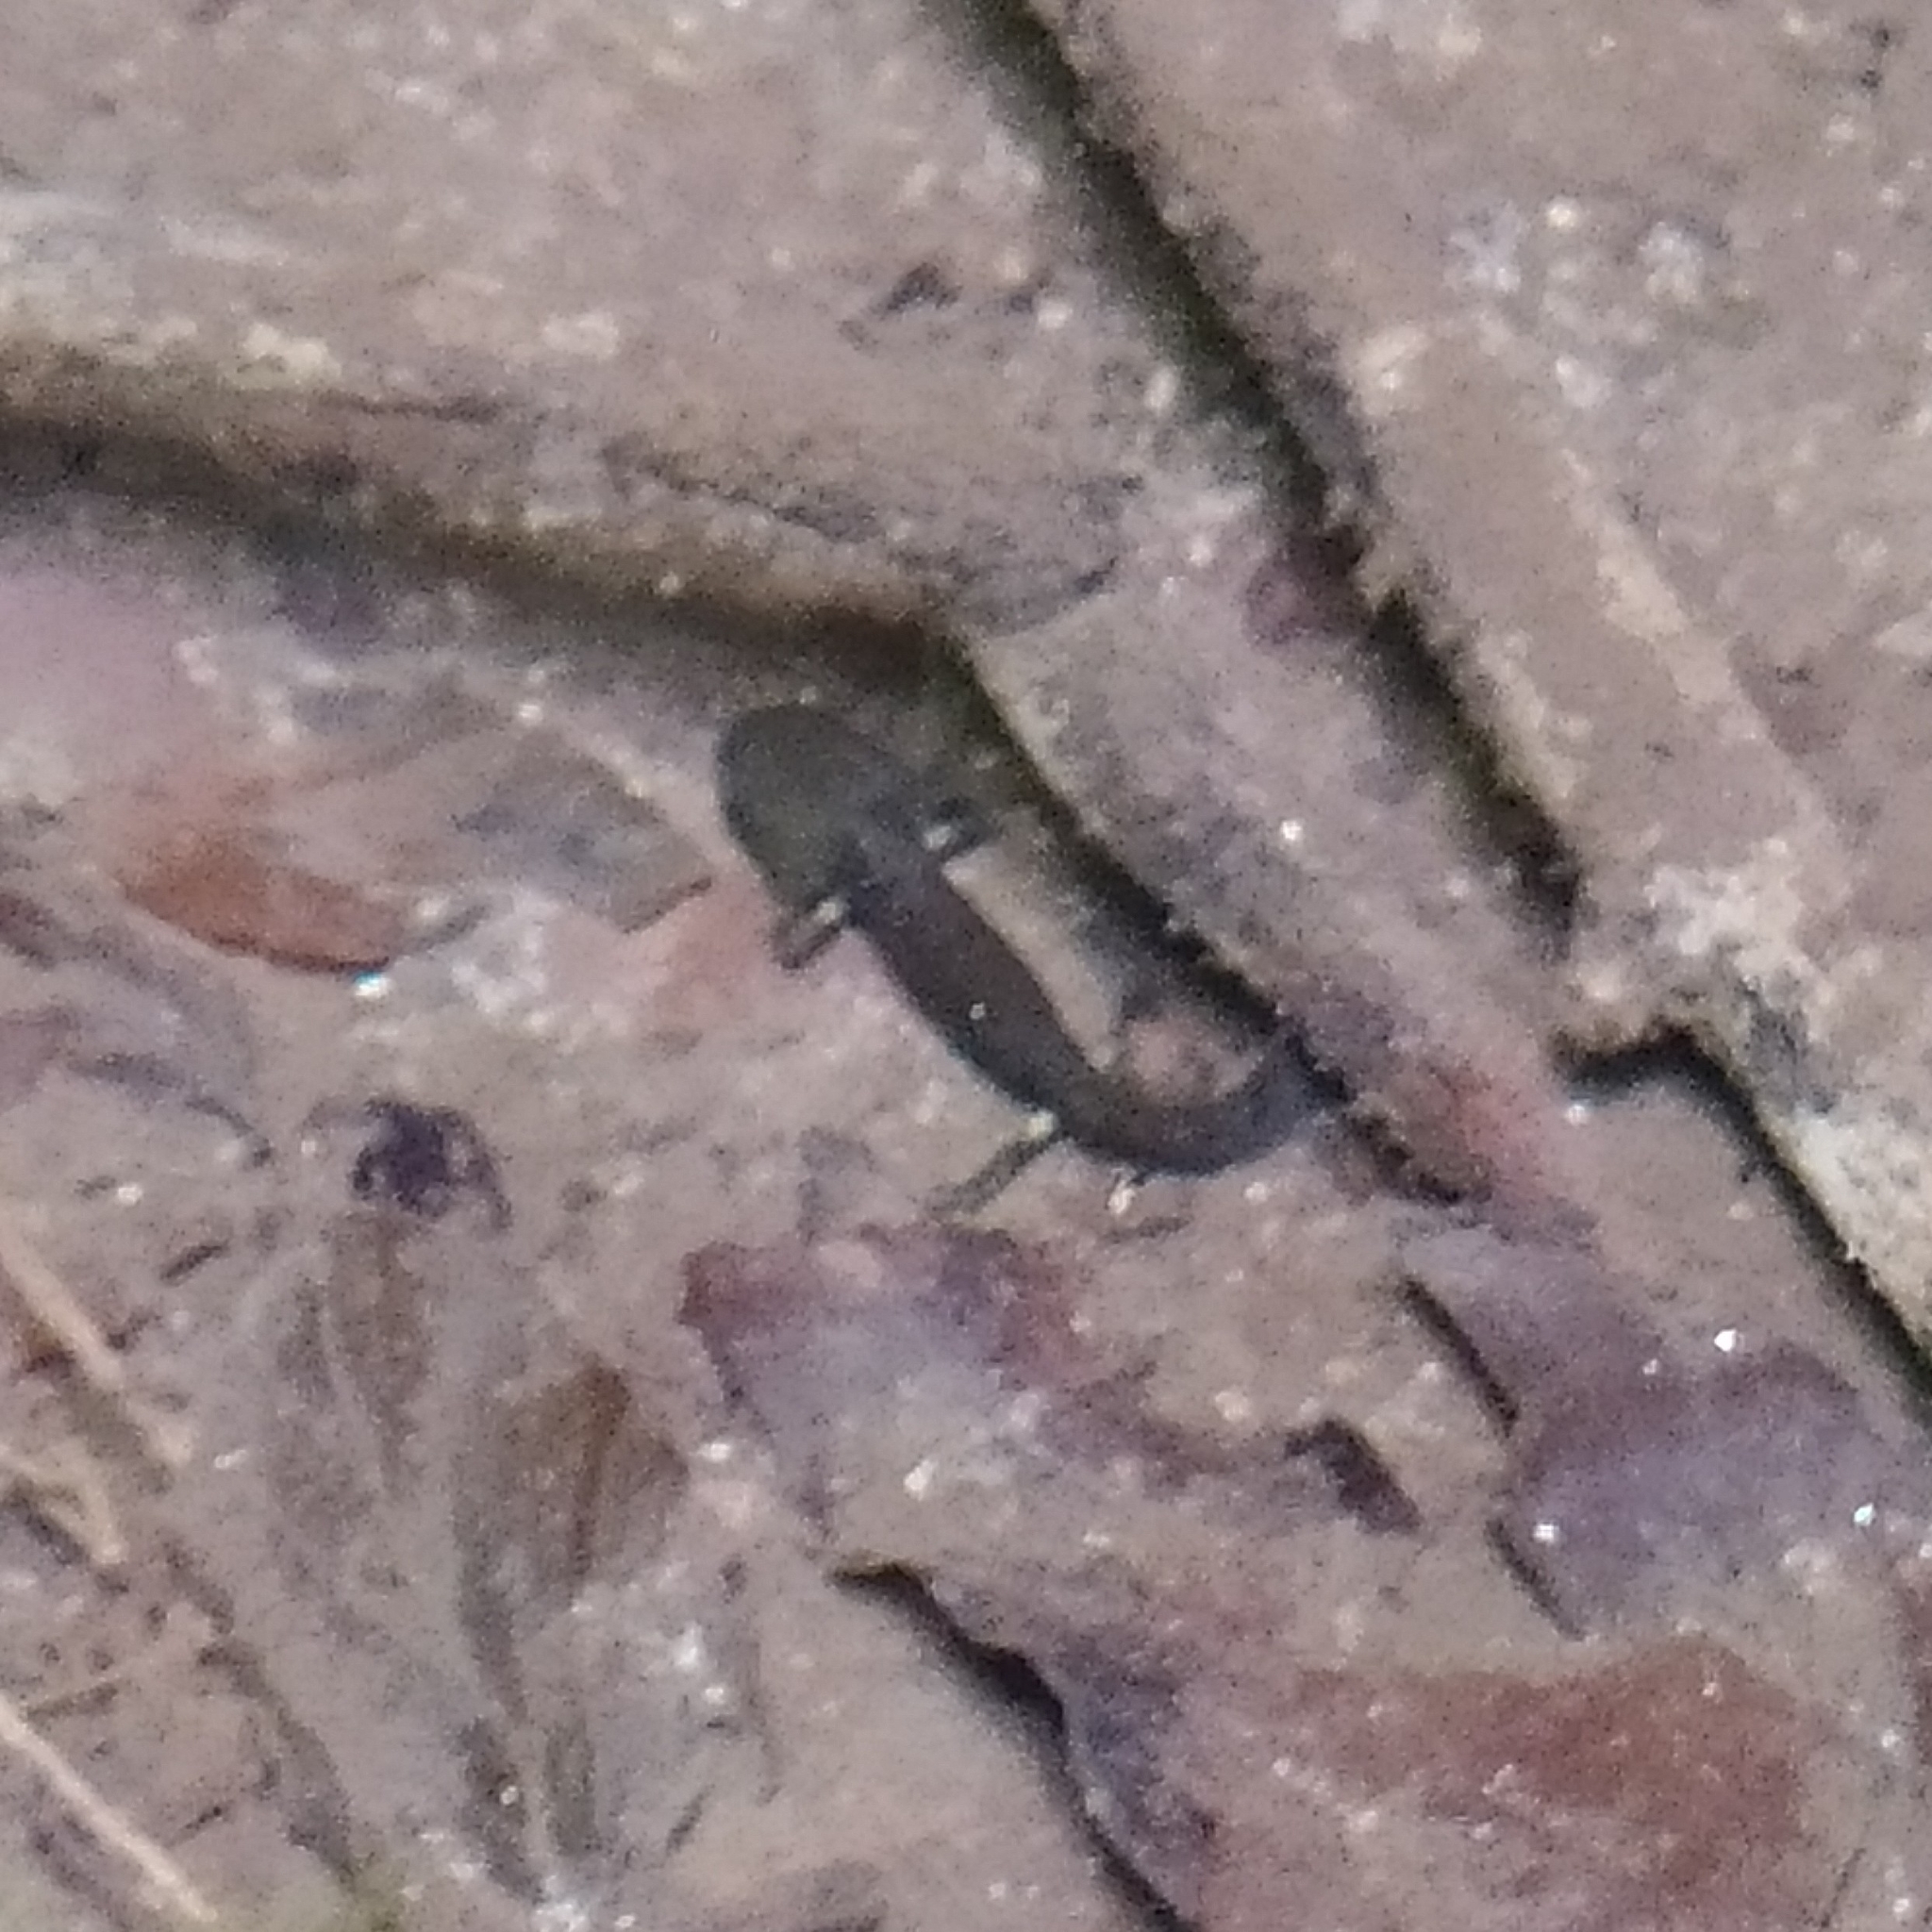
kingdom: Animalia
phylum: Chordata
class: Amphibia
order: Caudata
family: Salamandridae
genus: Salamandra
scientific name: Salamandra salamandra
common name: Fire salamander
